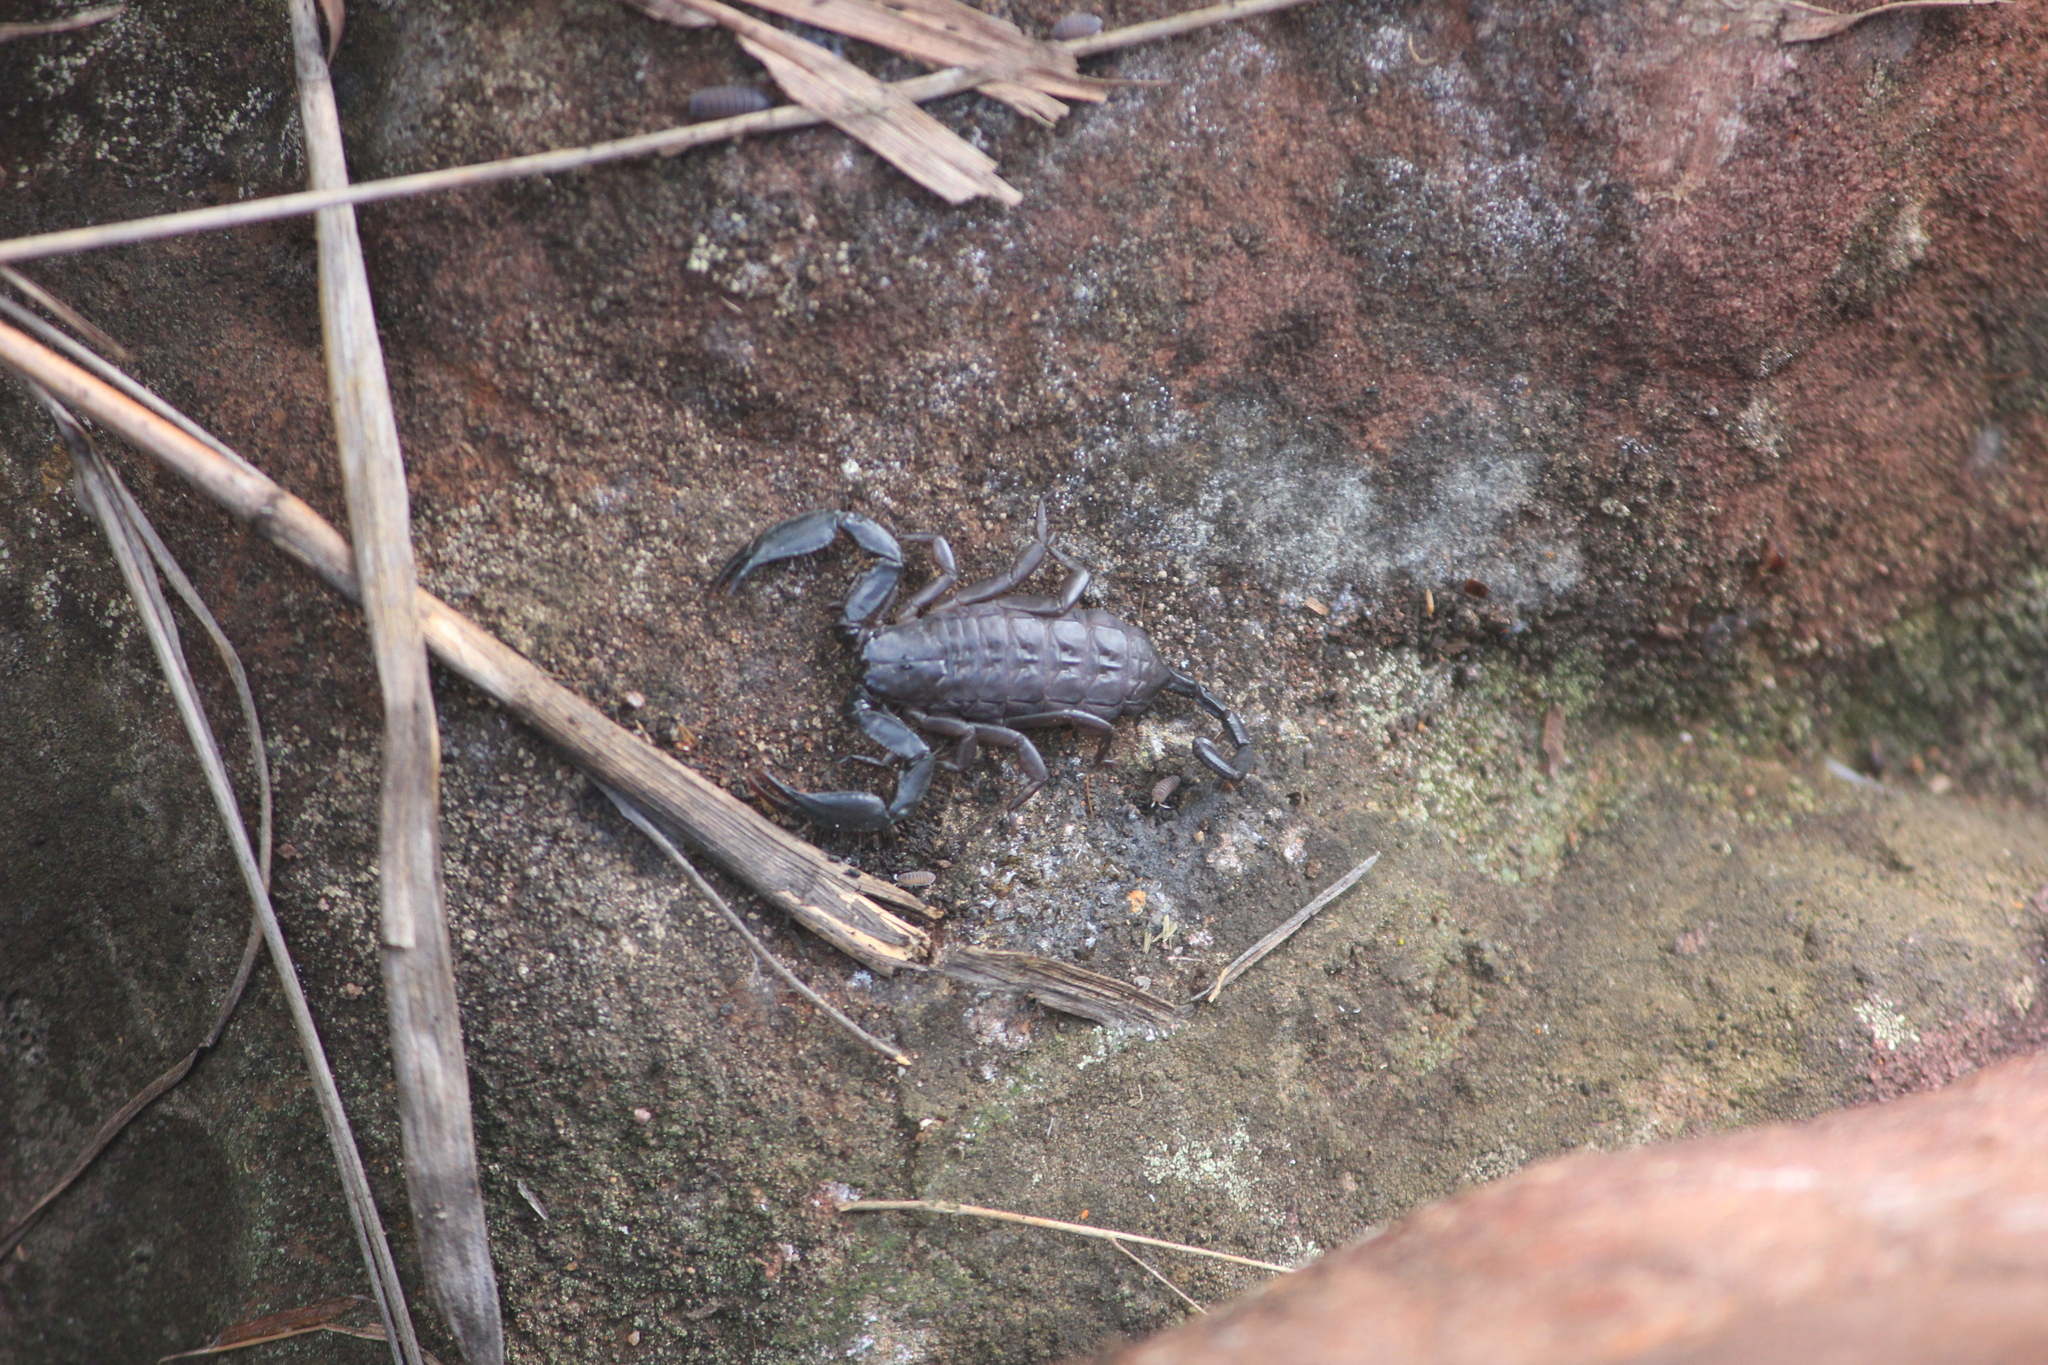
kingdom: Animalia
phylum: Arthropoda
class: Arachnida
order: Scorpiones
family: Hormuridae
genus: Hadogenes
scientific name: Hadogenes soutpansbergensis
